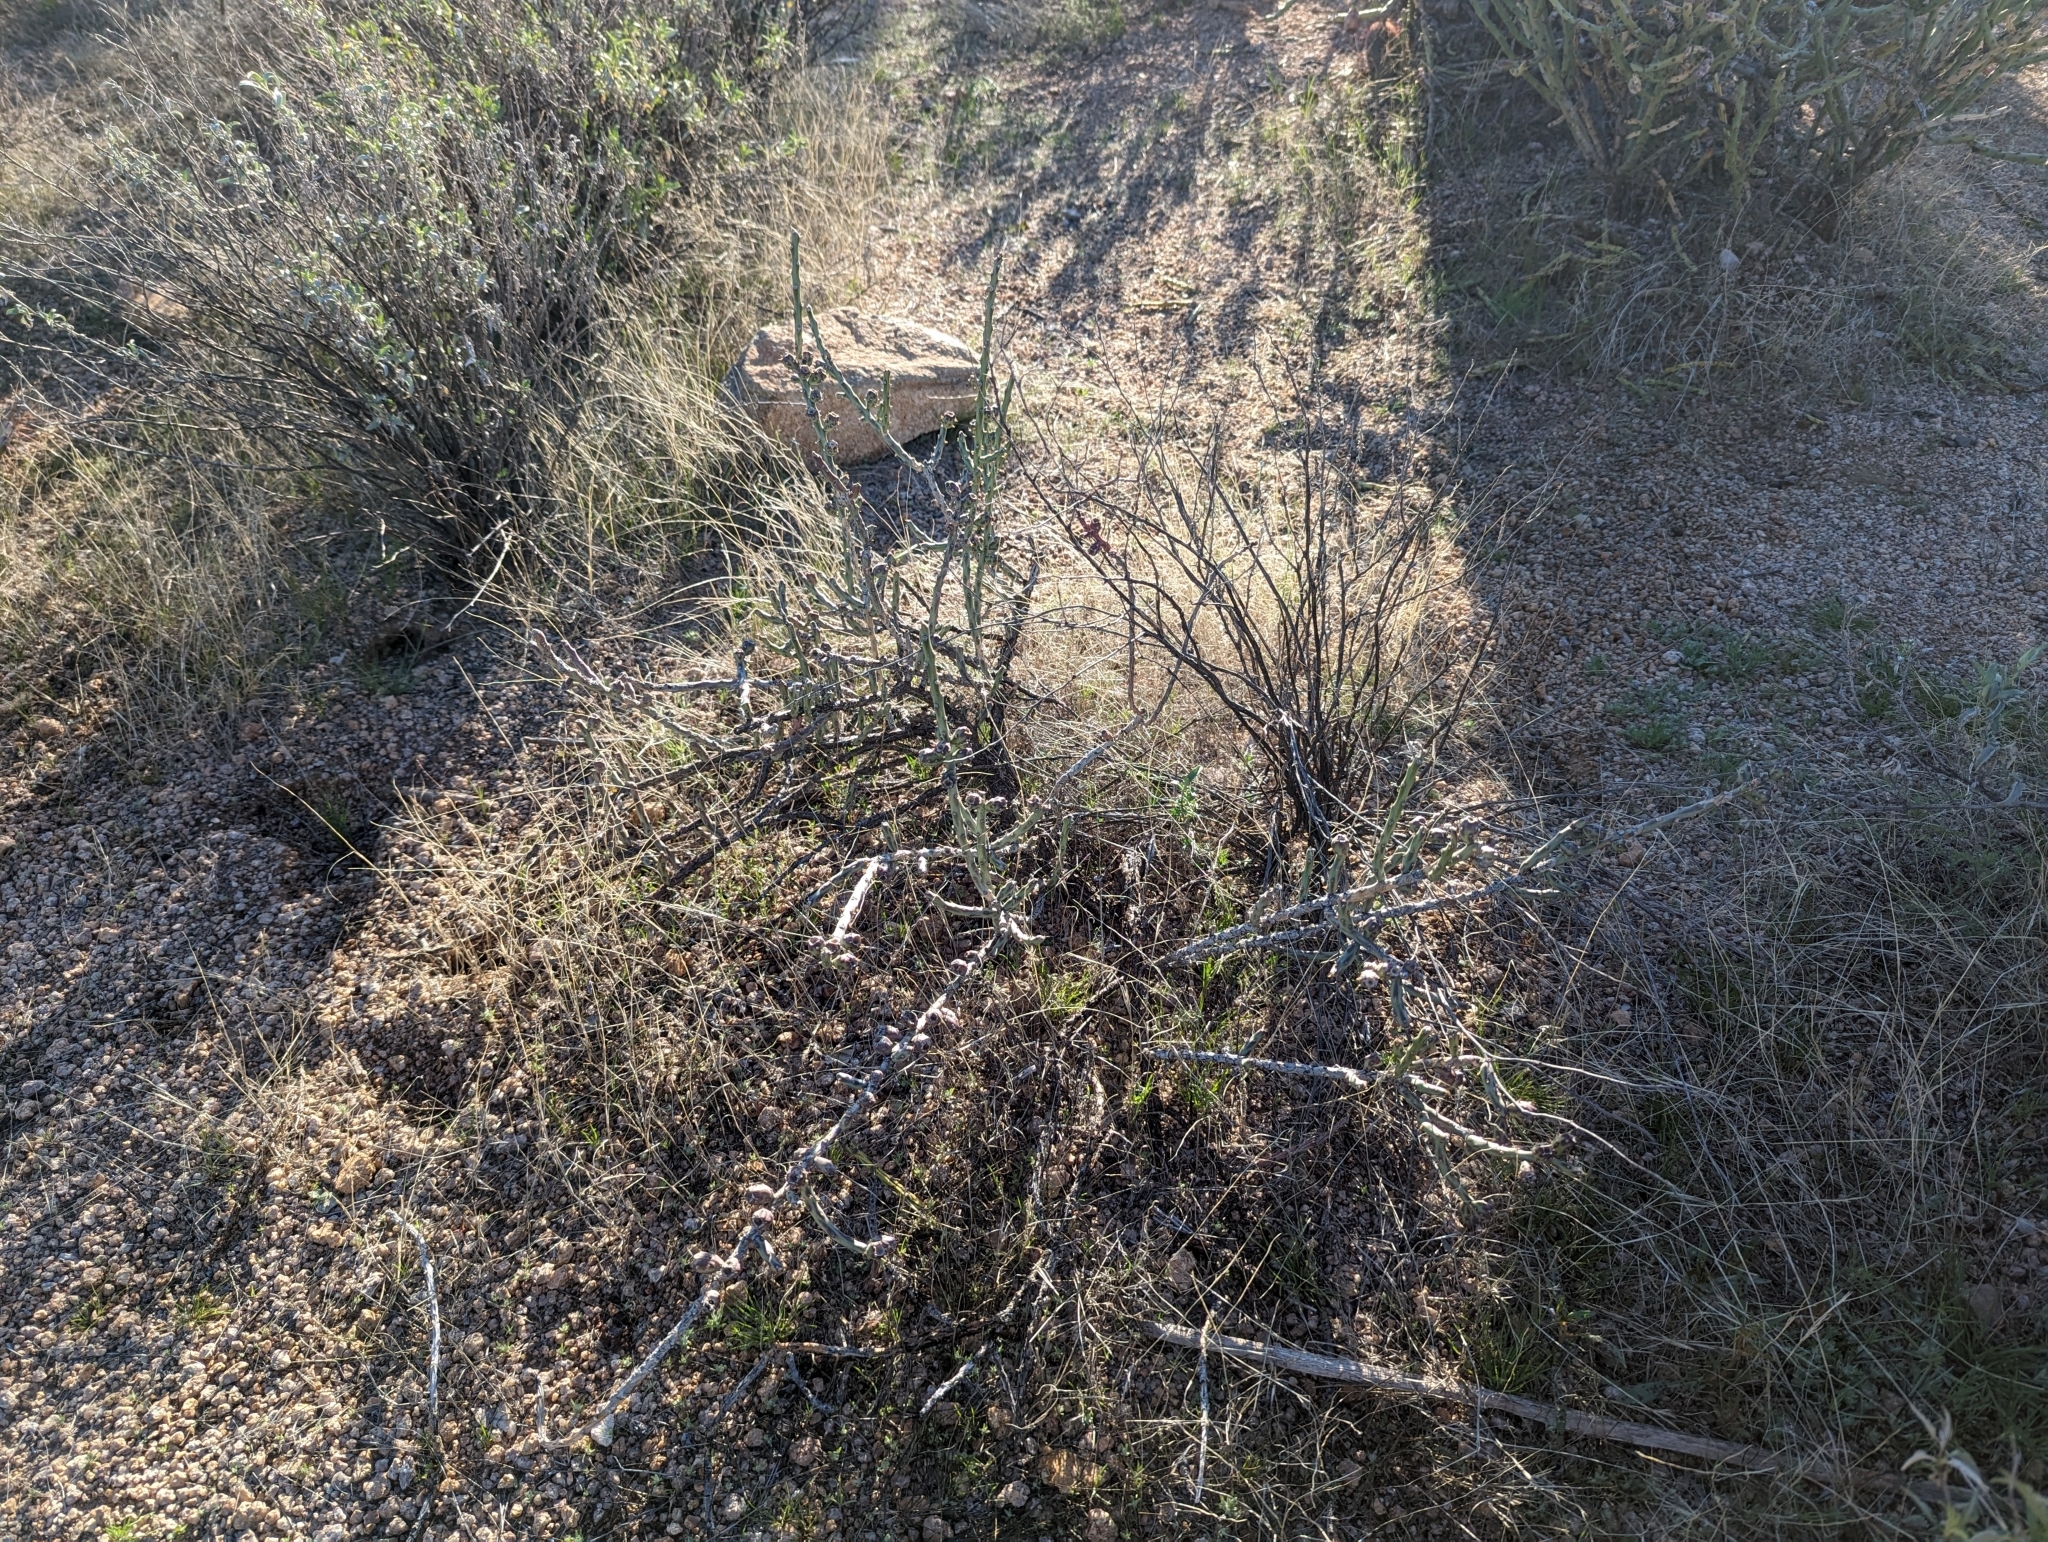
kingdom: Plantae
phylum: Tracheophyta
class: Magnoliopsida
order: Caryophyllales
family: Cactaceae
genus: Cylindropuntia
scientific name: Cylindropuntia leptocaulis
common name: Christmas cactus
